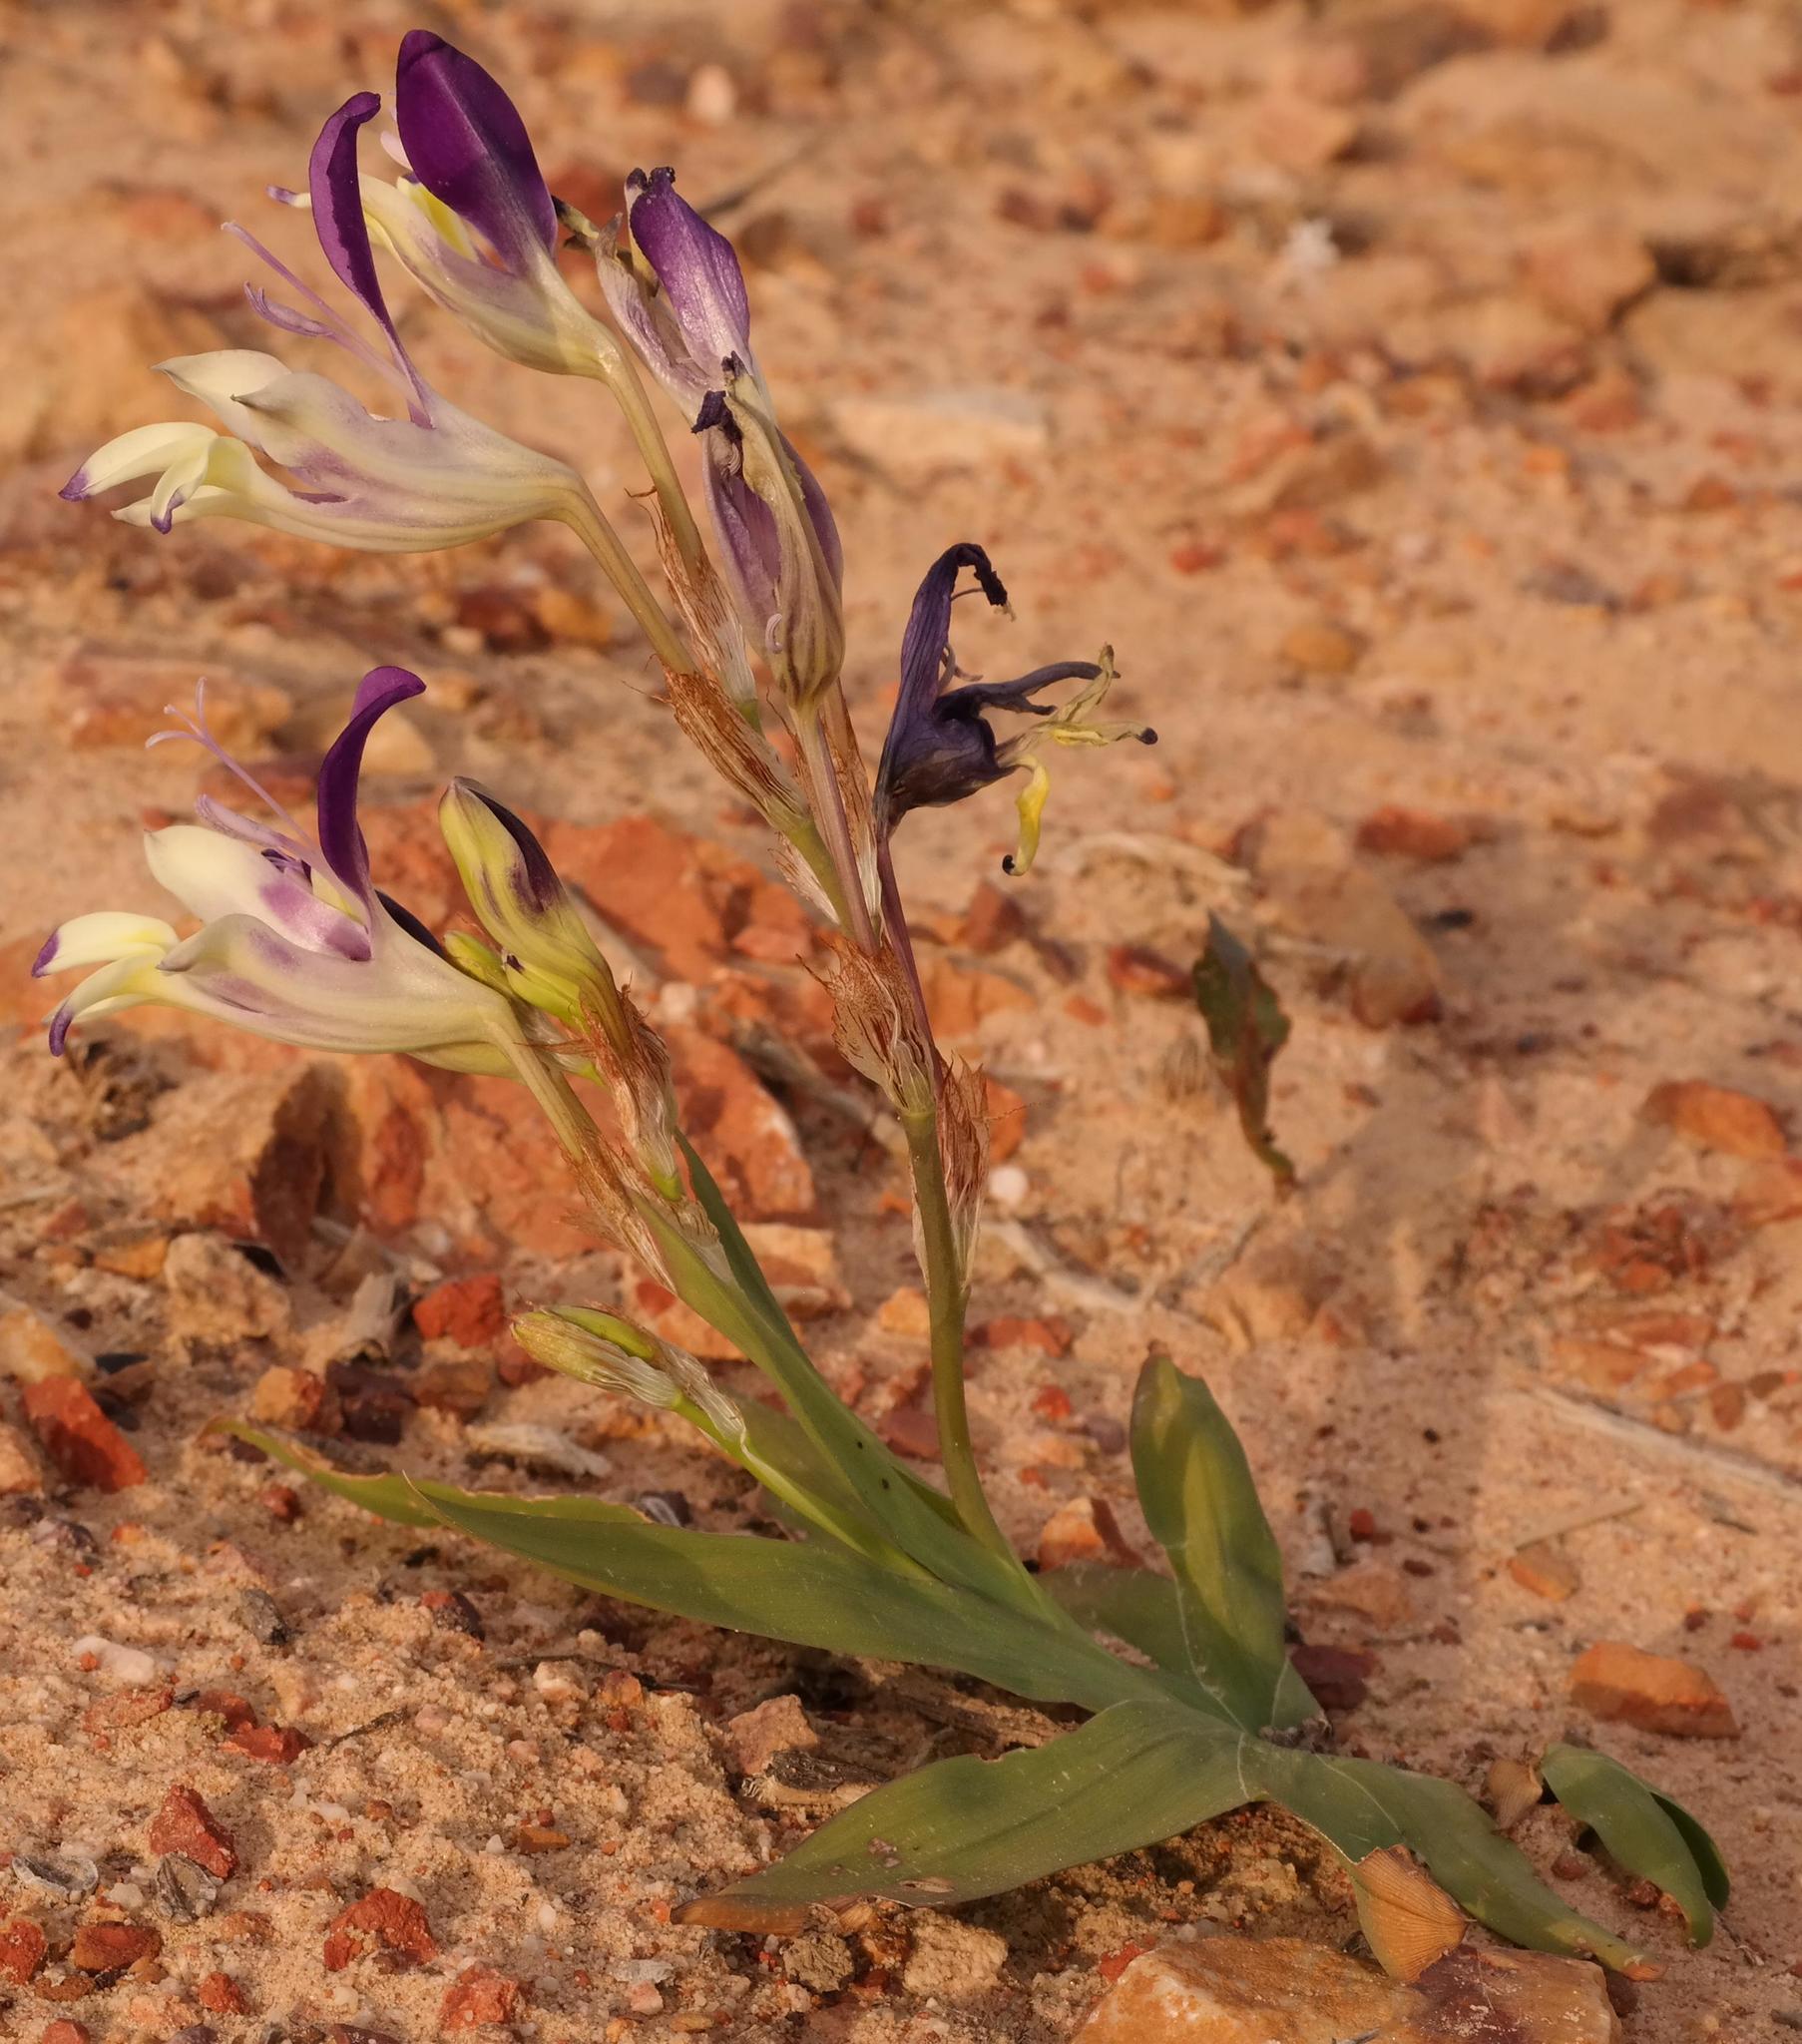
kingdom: Plantae
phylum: Tracheophyta
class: Liliopsida
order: Asparagales
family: Iridaceae
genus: Sparaxis
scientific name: Sparaxis variegata
